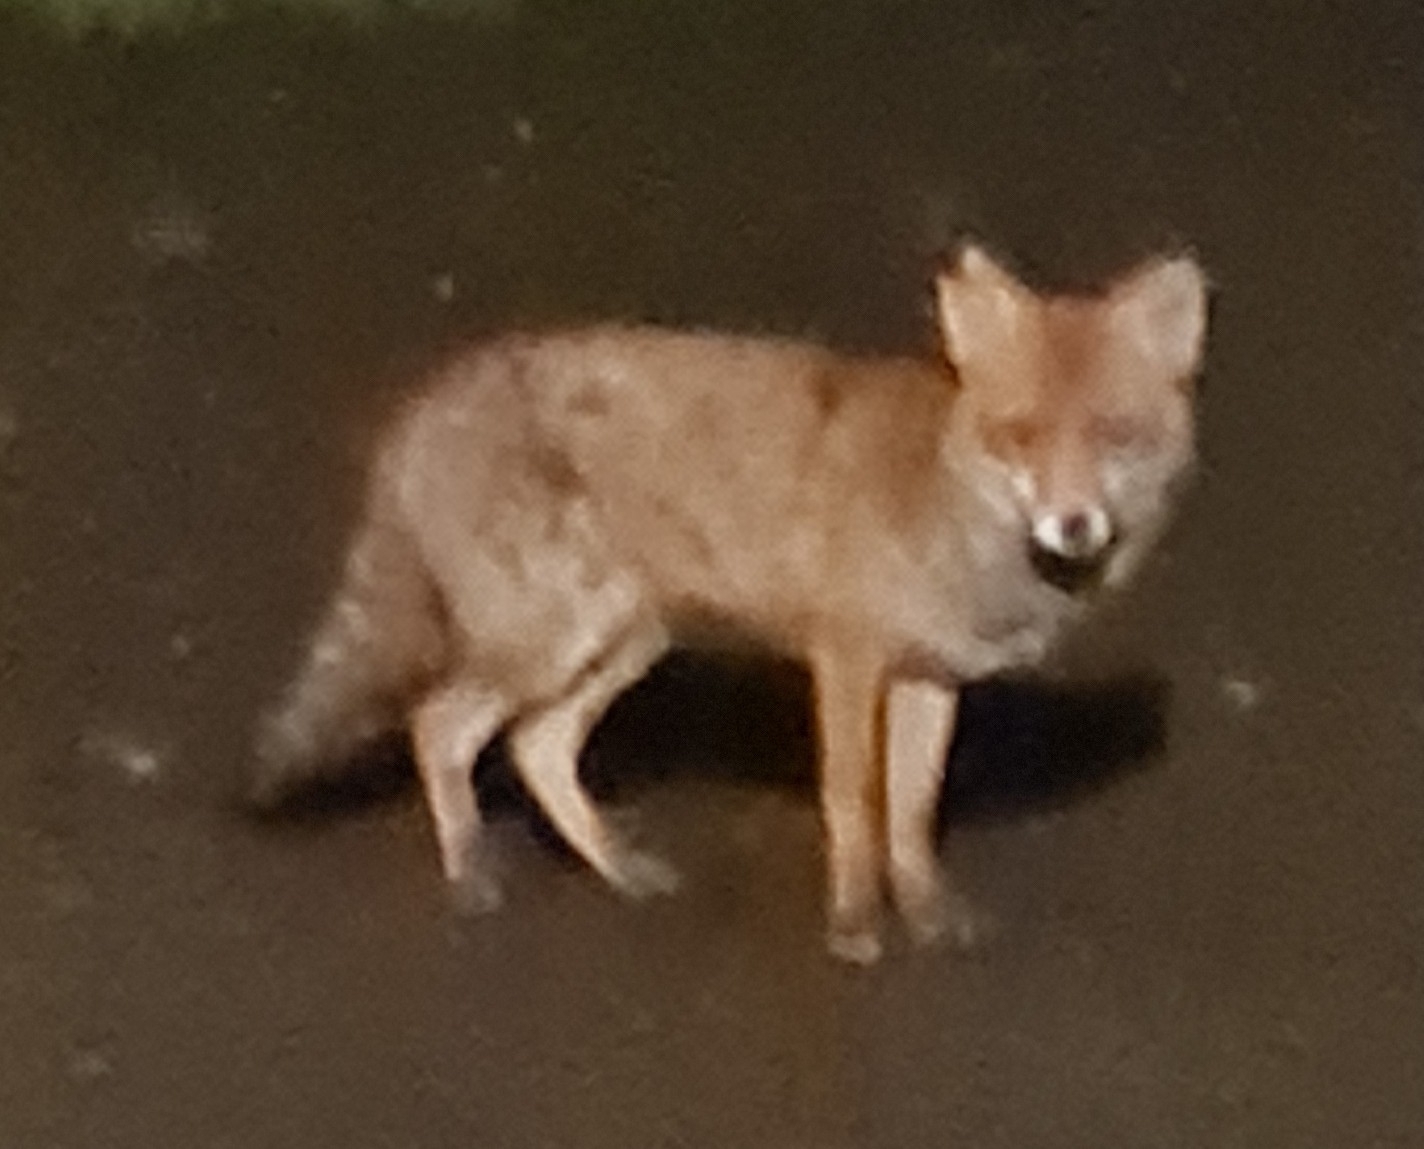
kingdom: Animalia
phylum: Chordata
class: Mammalia
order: Carnivora
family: Canidae
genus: Vulpes
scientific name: Vulpes vulpes
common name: Red fox
